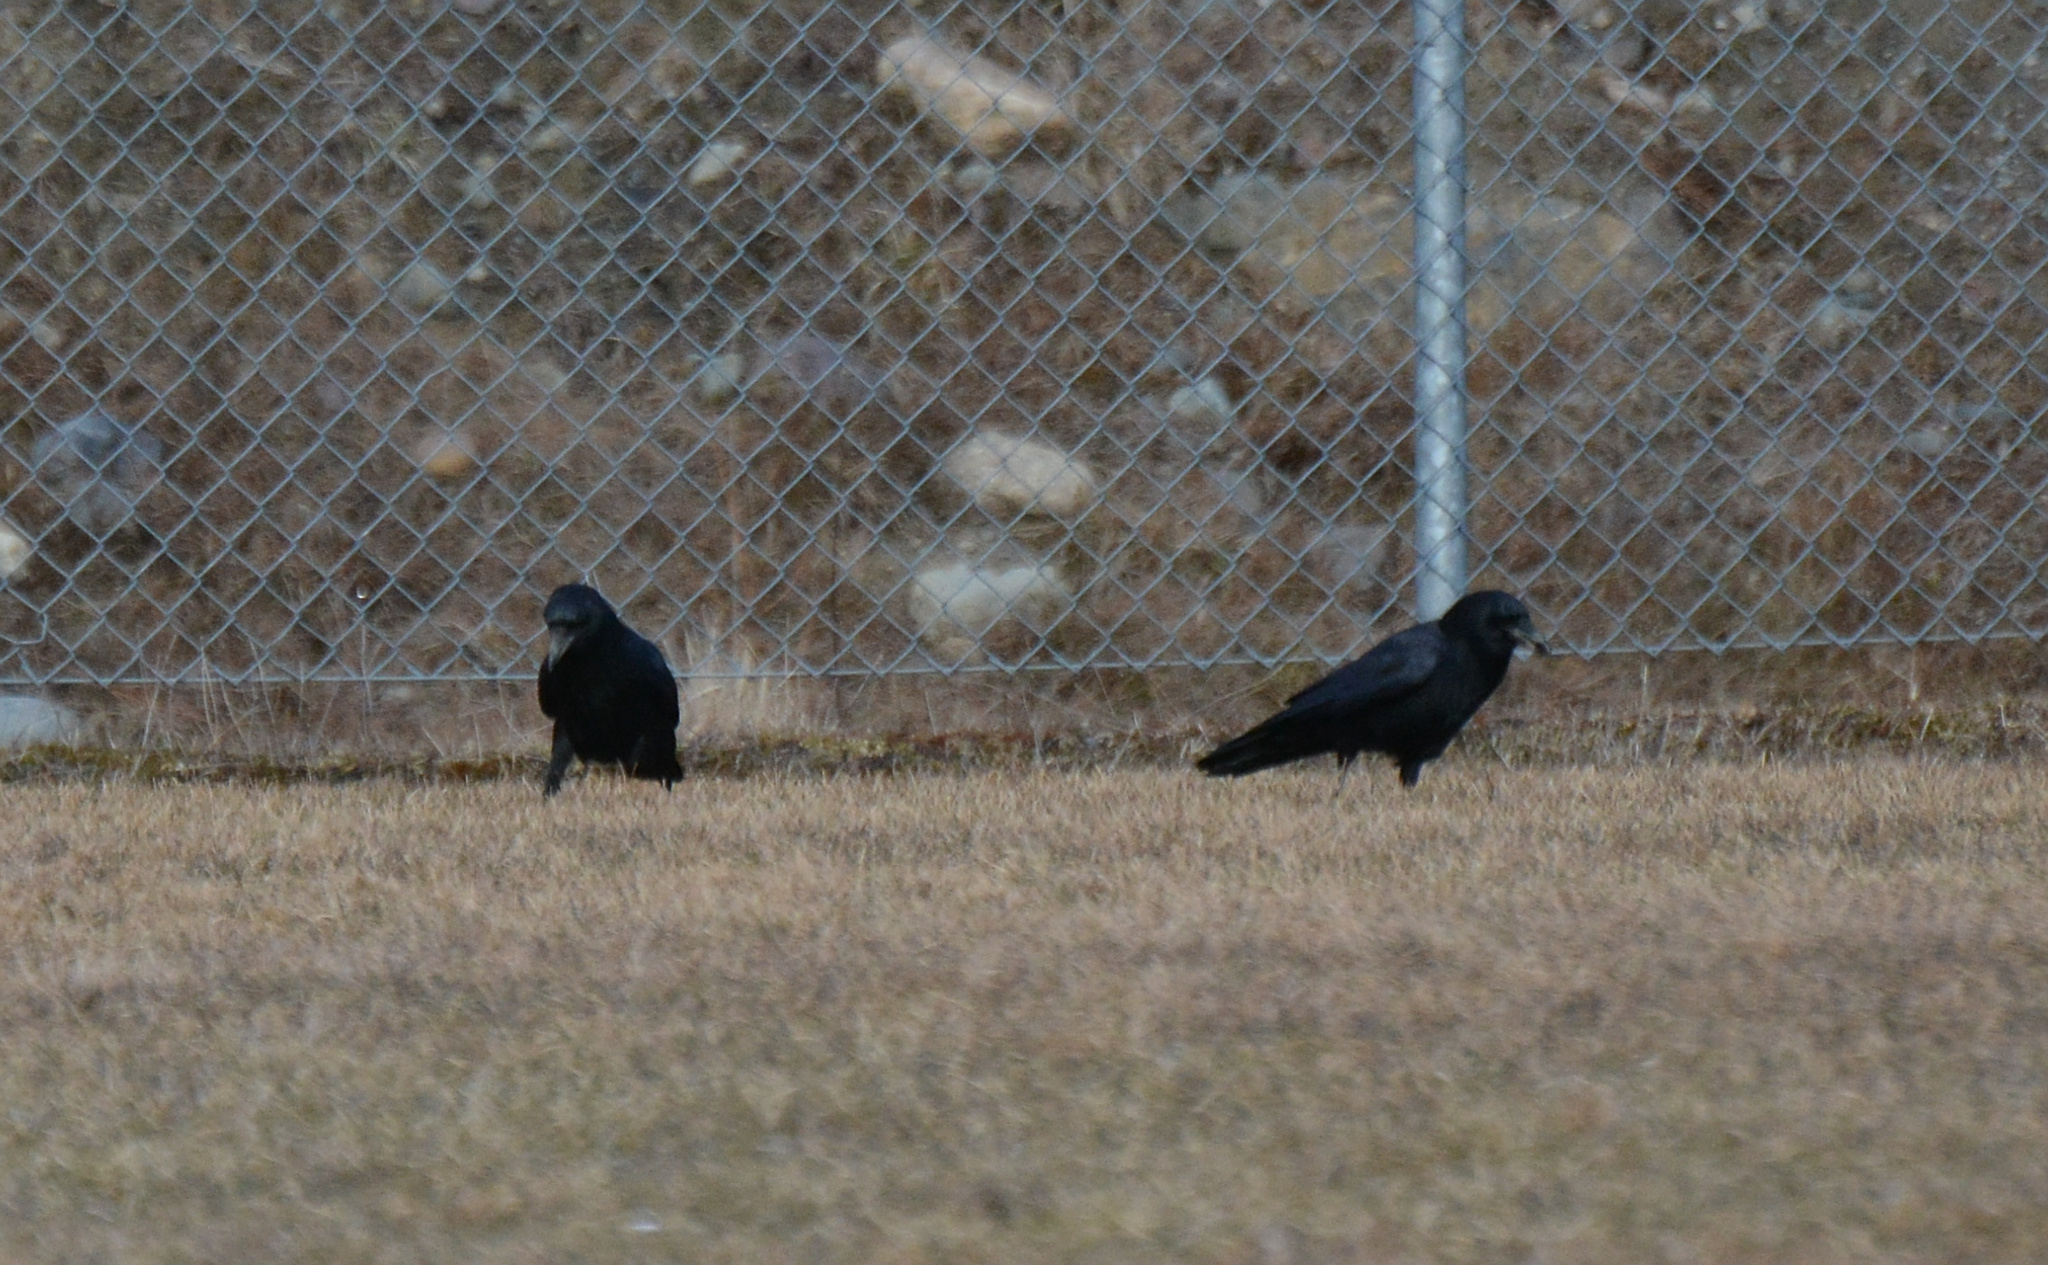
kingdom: Animalia
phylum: Chordata
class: Aves
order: Passeriformes
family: Corvidae
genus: Corvus
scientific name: Corvus brachyrhynchos
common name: American crow
